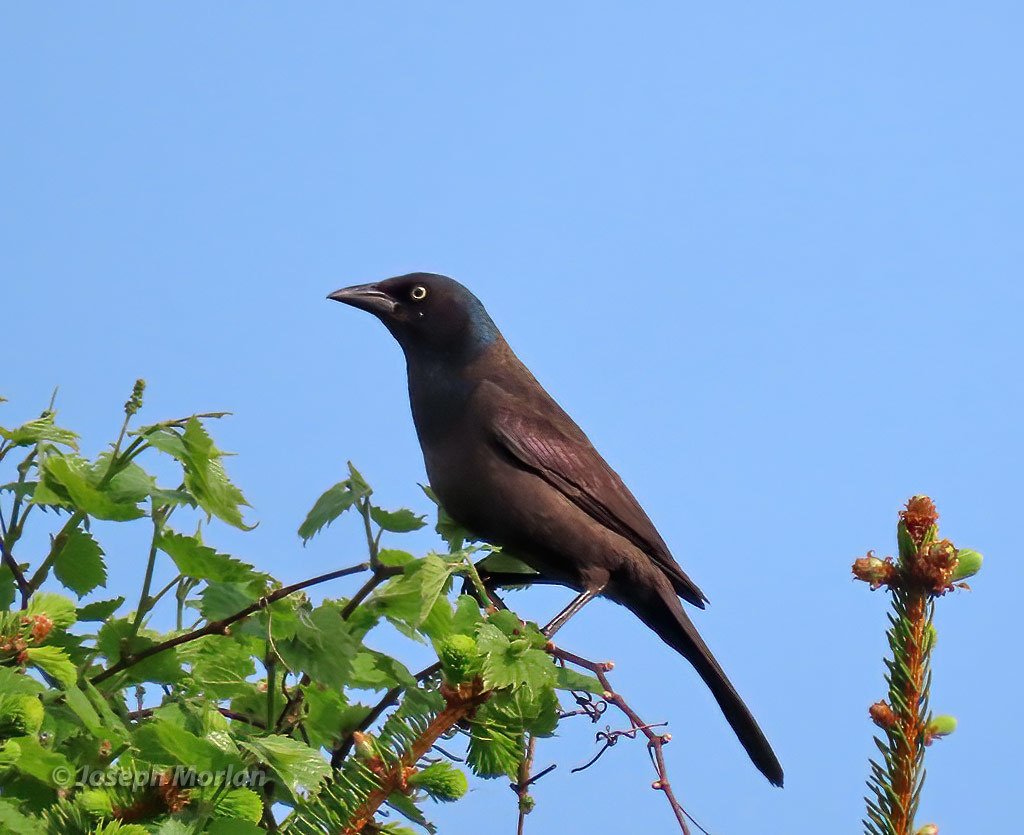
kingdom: Animalia
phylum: Chordata
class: Aves
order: Passeriformes
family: Icteridae
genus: Quiscalus
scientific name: Quiscalus quiscula
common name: Common grackle
